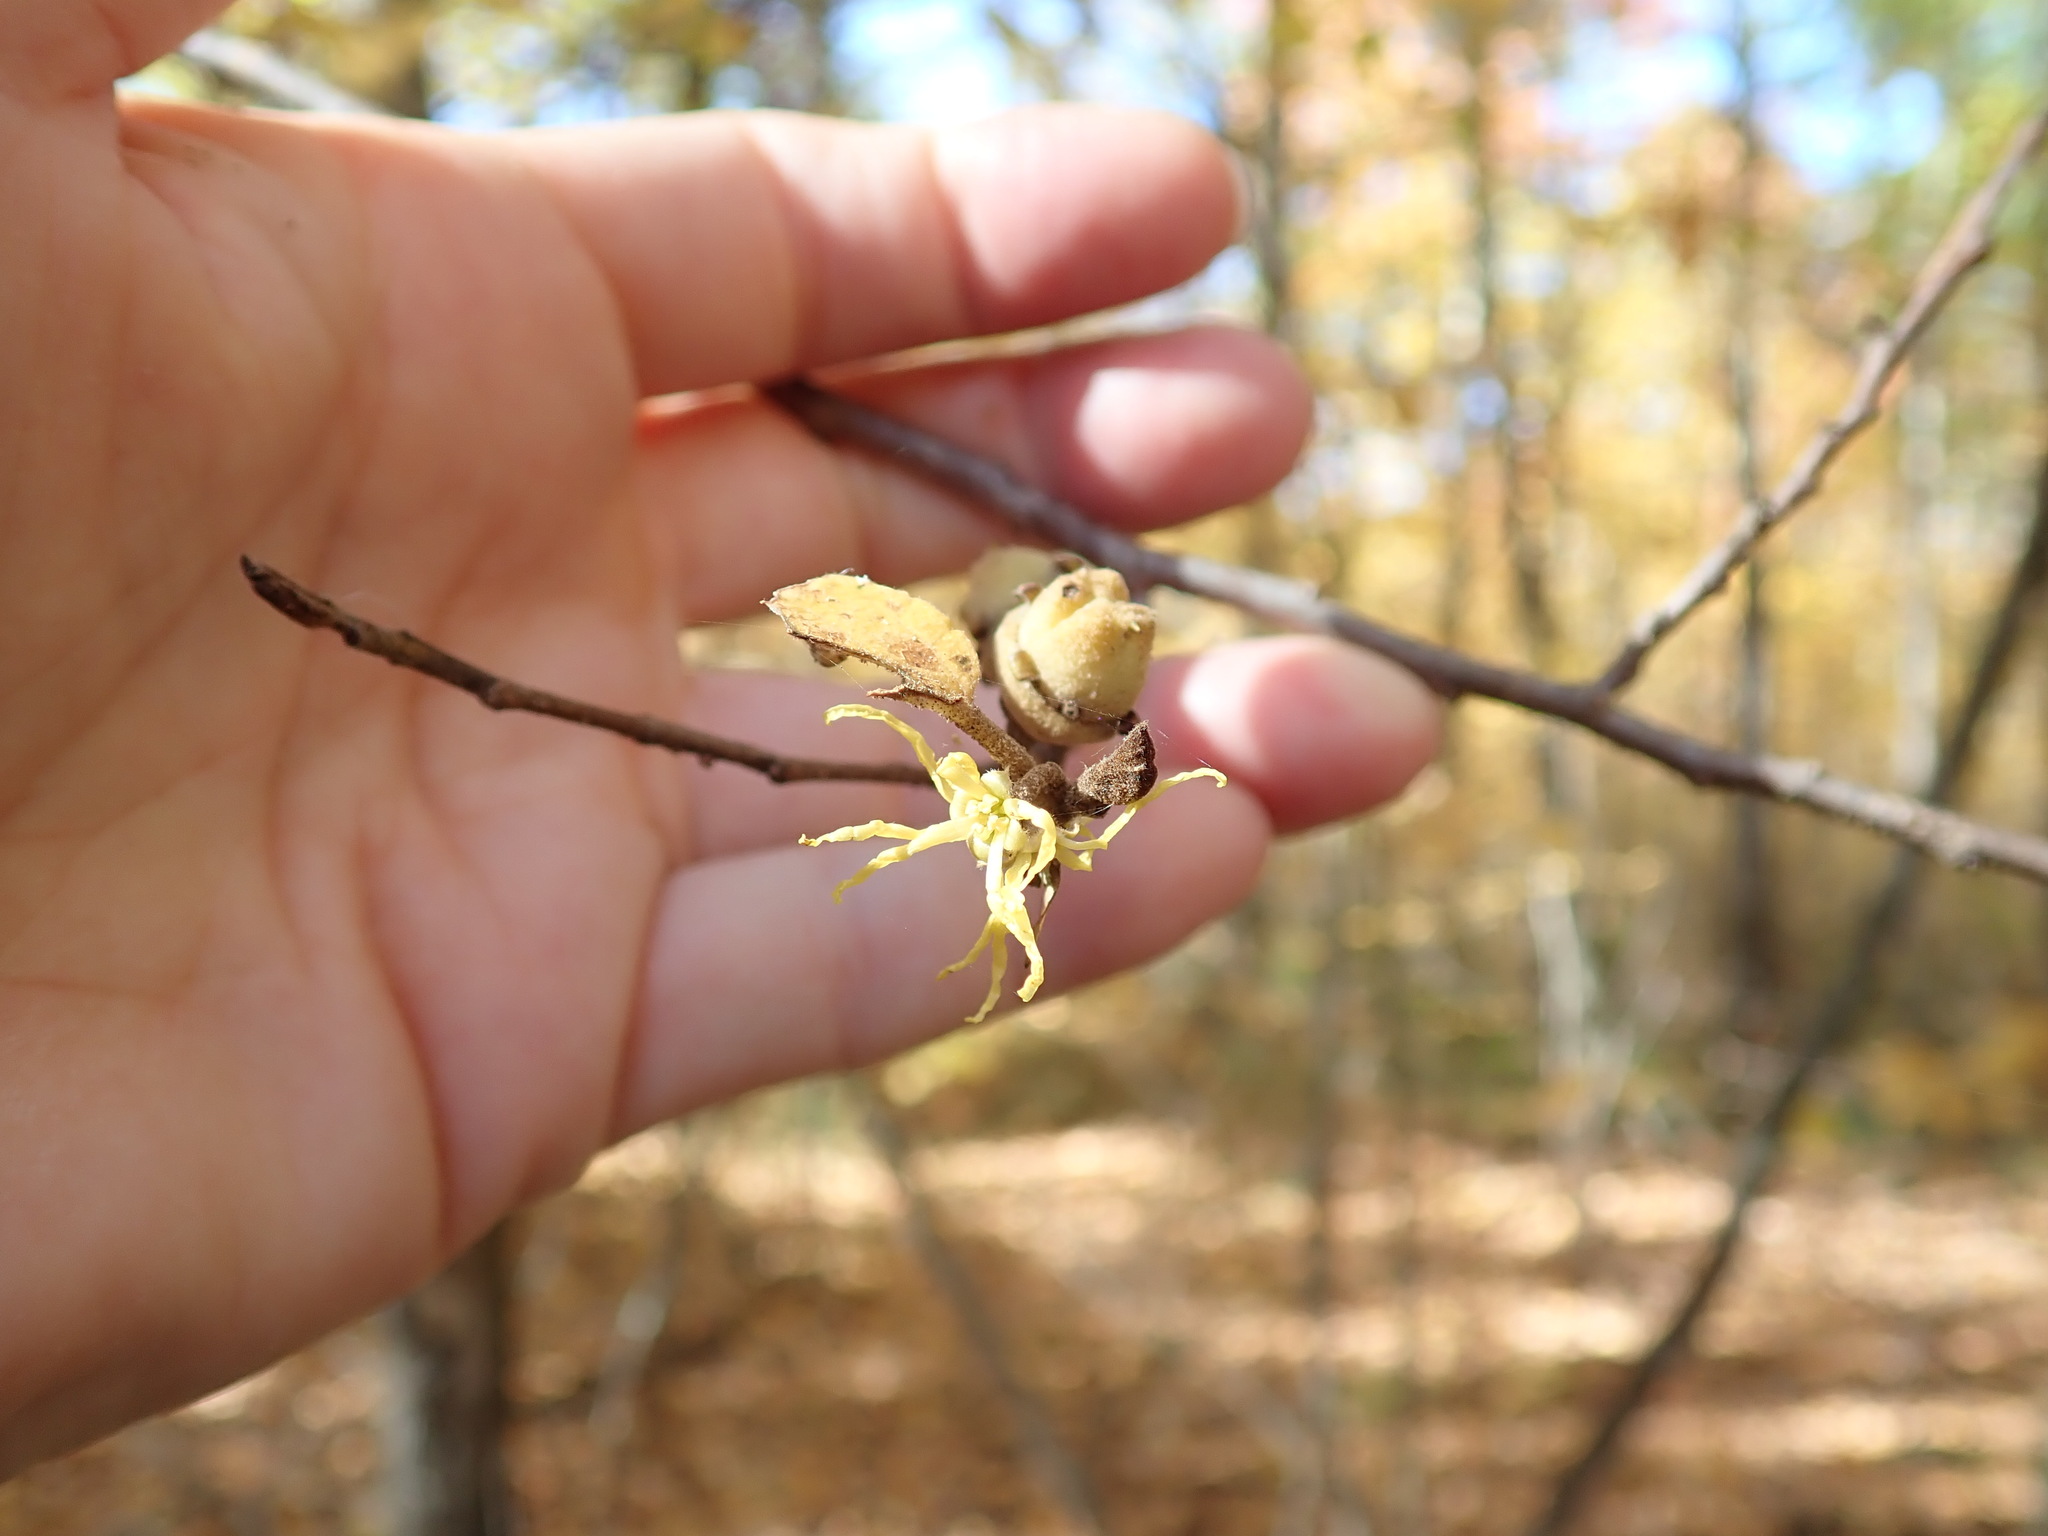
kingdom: Plantae
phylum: Tracheophyta
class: Magnoliopsida
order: Saxifragales
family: Hamamelidaceae
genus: Hamamelis
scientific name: Hamamelis virginiana
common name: Witch-hazel
